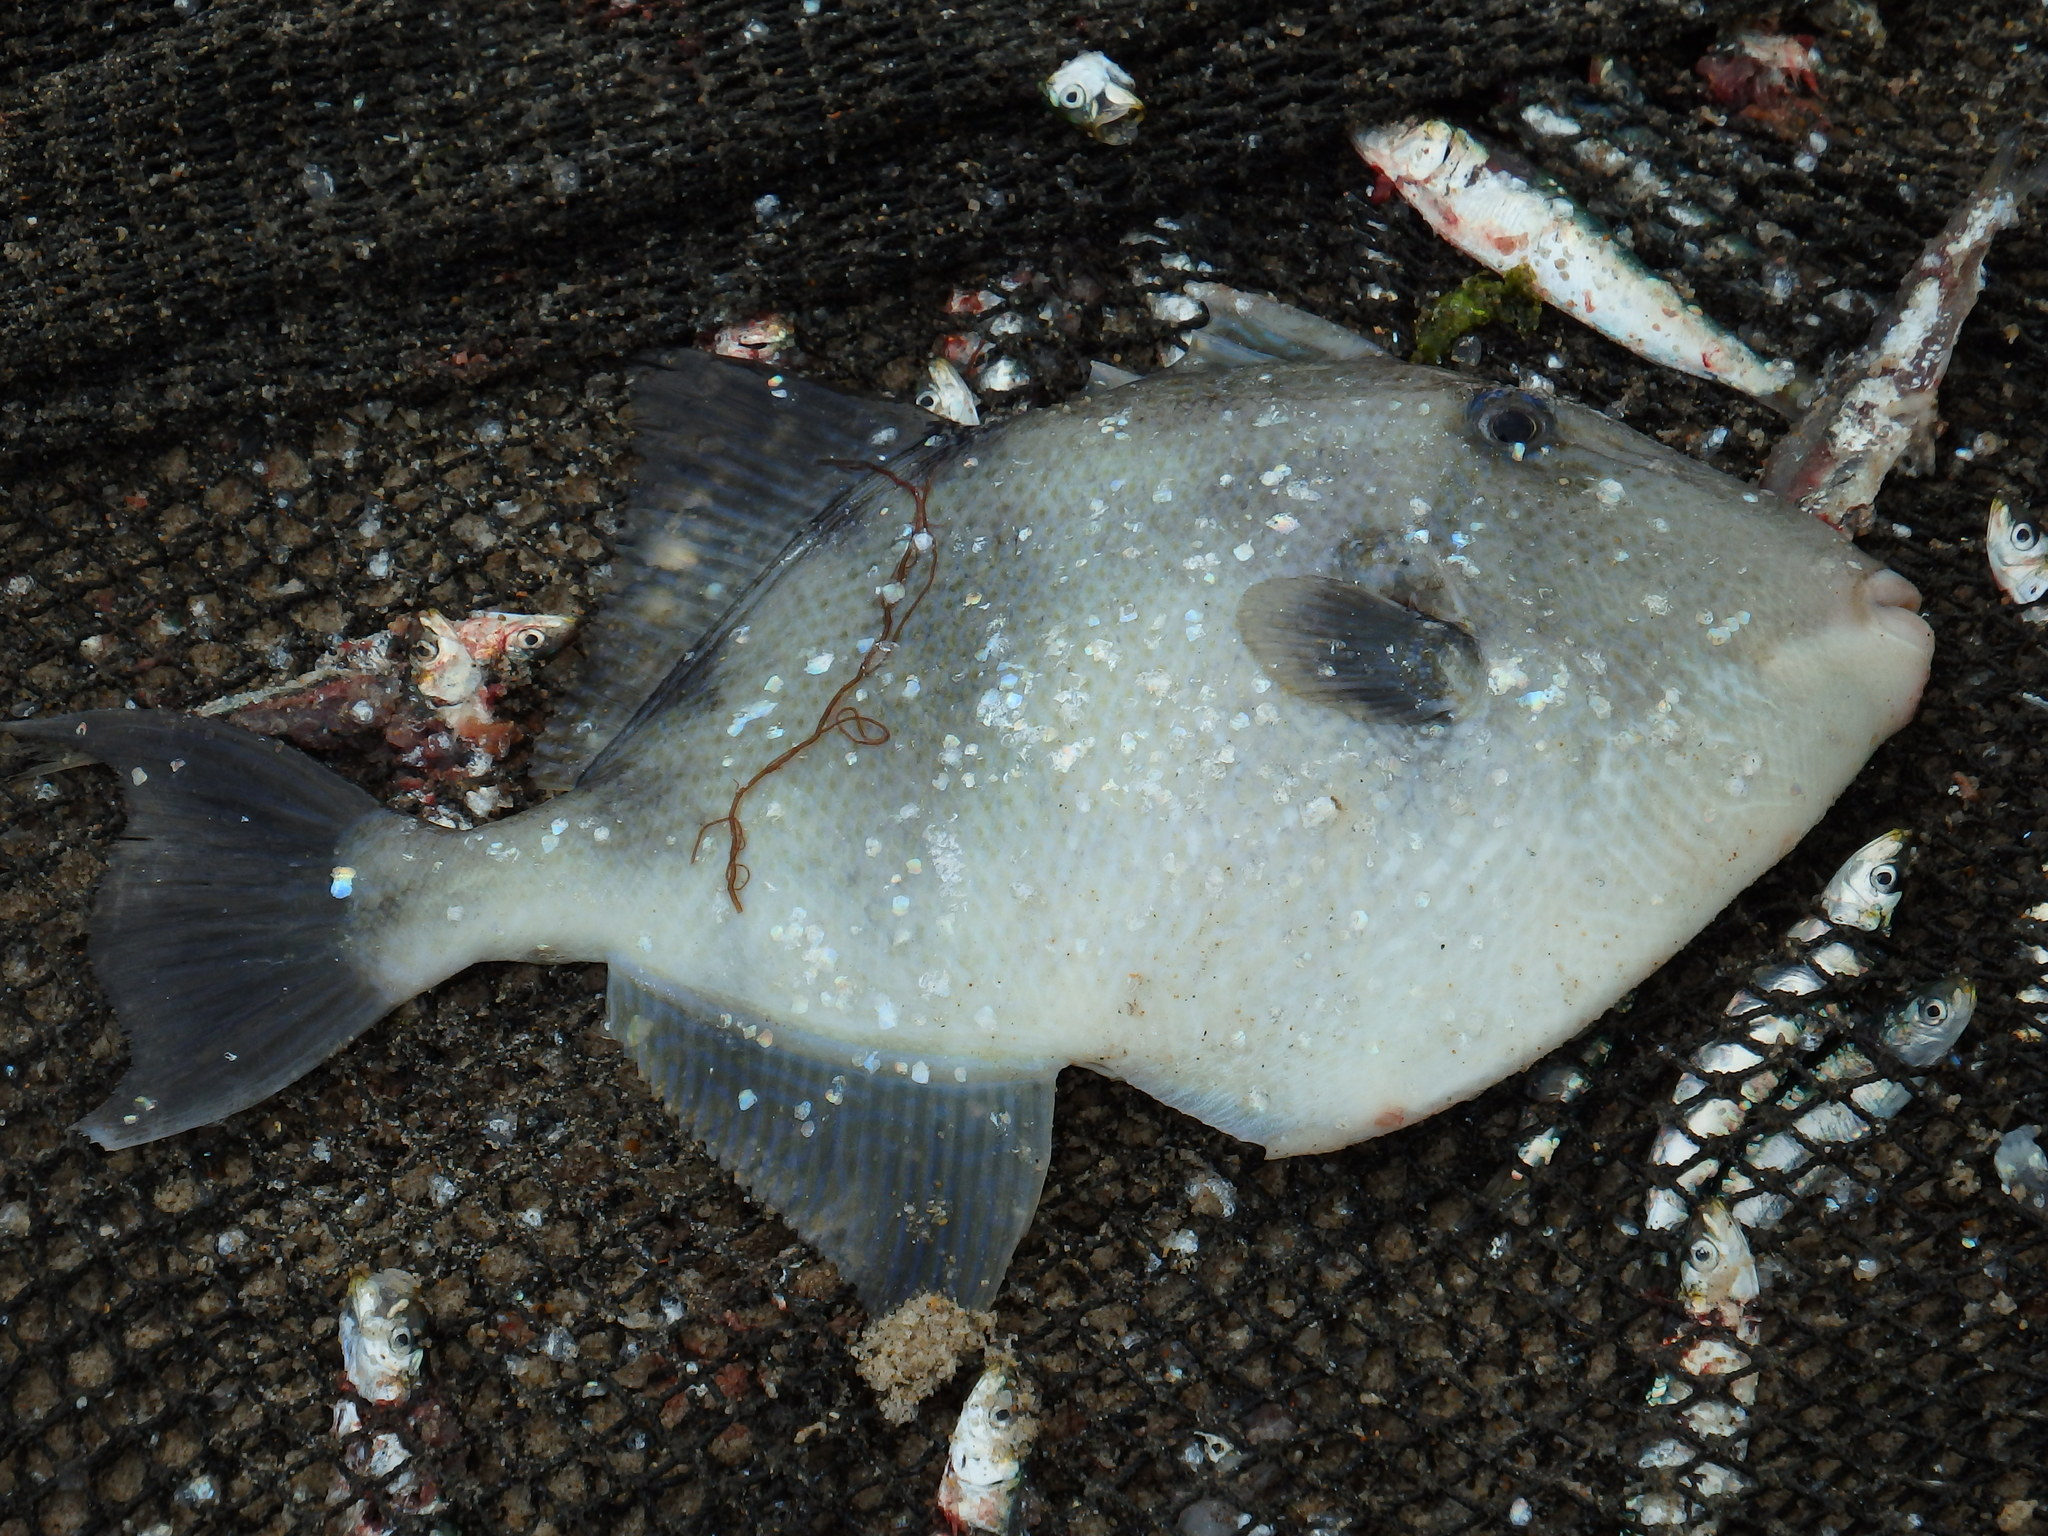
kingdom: Animalia
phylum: Chordata
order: Tetraodontiformes
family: Balistidae
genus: Balistes
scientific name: Balistes capriscus
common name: Grey triggerfish
